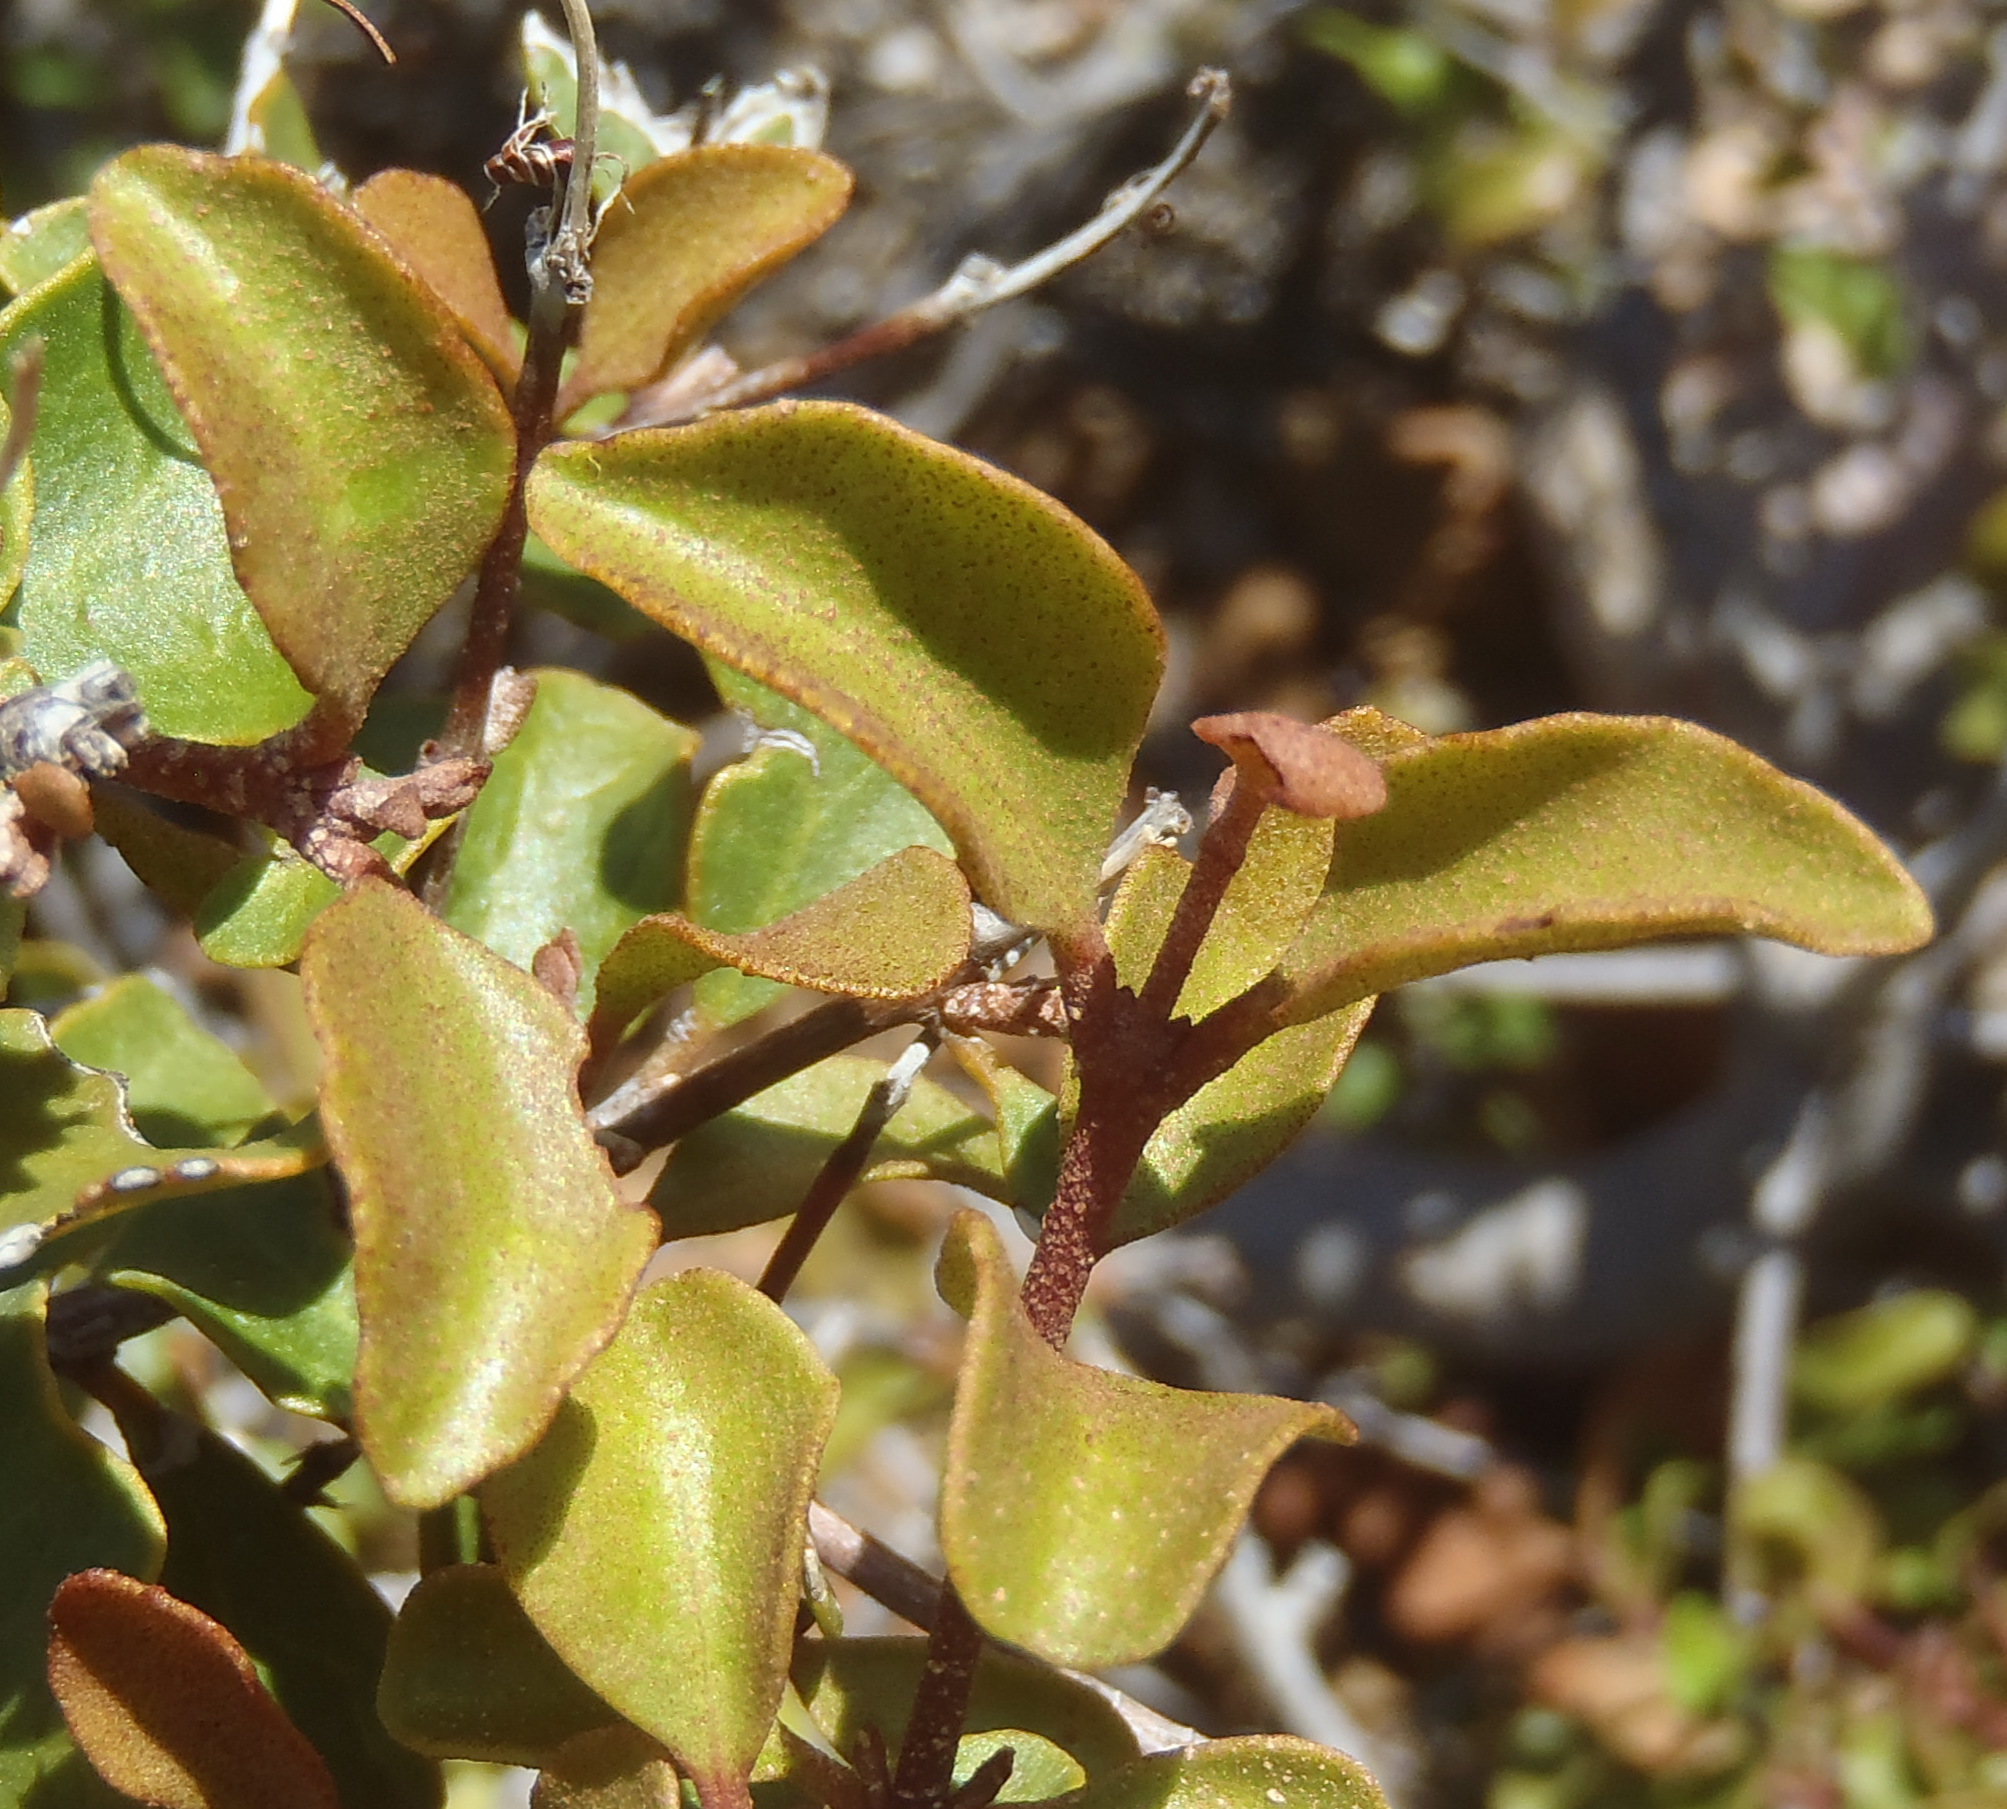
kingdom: Plantae
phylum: Tracheophyta
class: Magnoliopsida
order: Ericales
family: Ebenaceae
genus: Euclea
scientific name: Euclea undulata
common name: Small-leaved guarri
